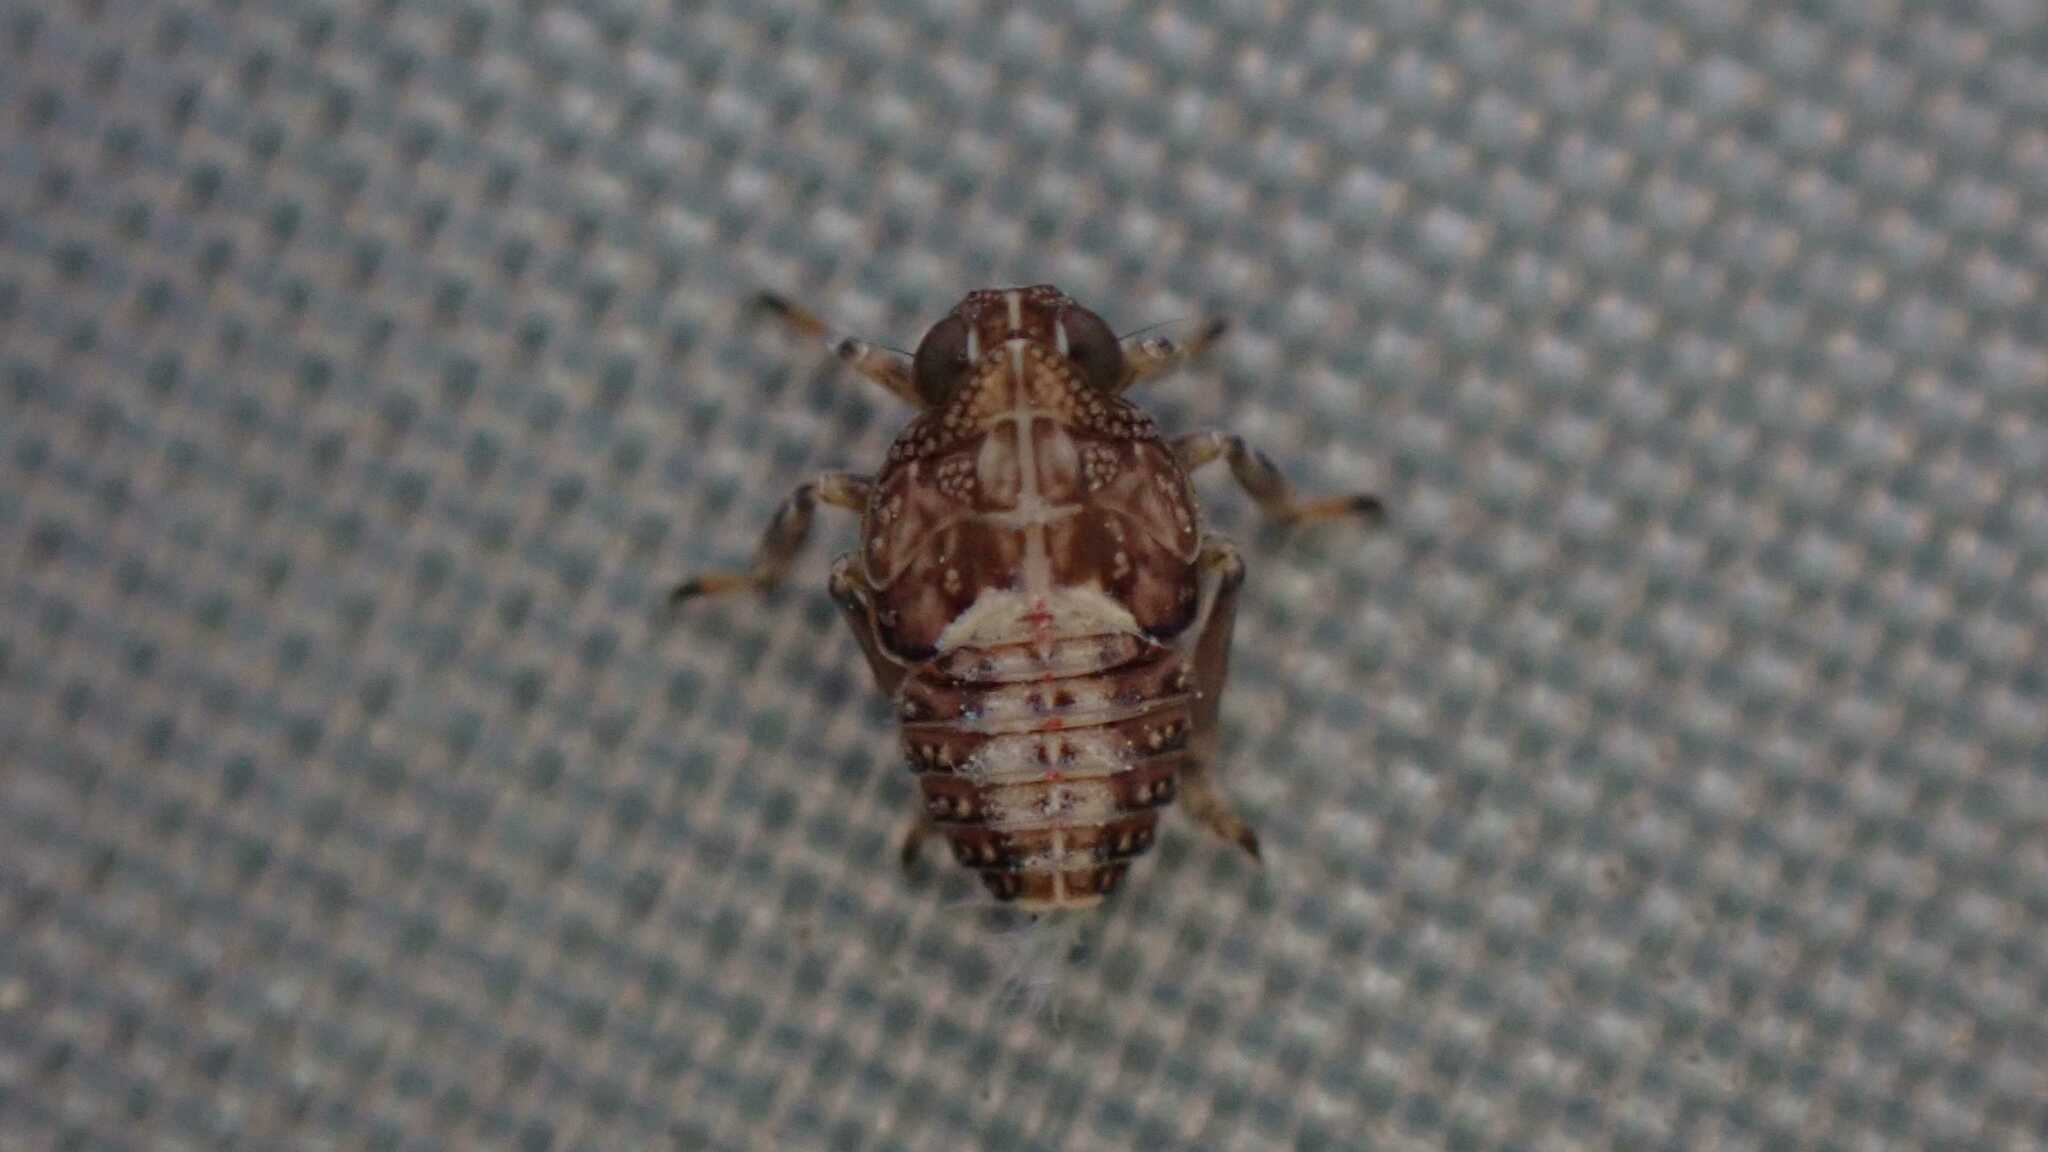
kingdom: Animalia
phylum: Arthropoda
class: Insecta
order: Hemiptera
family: Issidae
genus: Issus
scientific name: Issus
